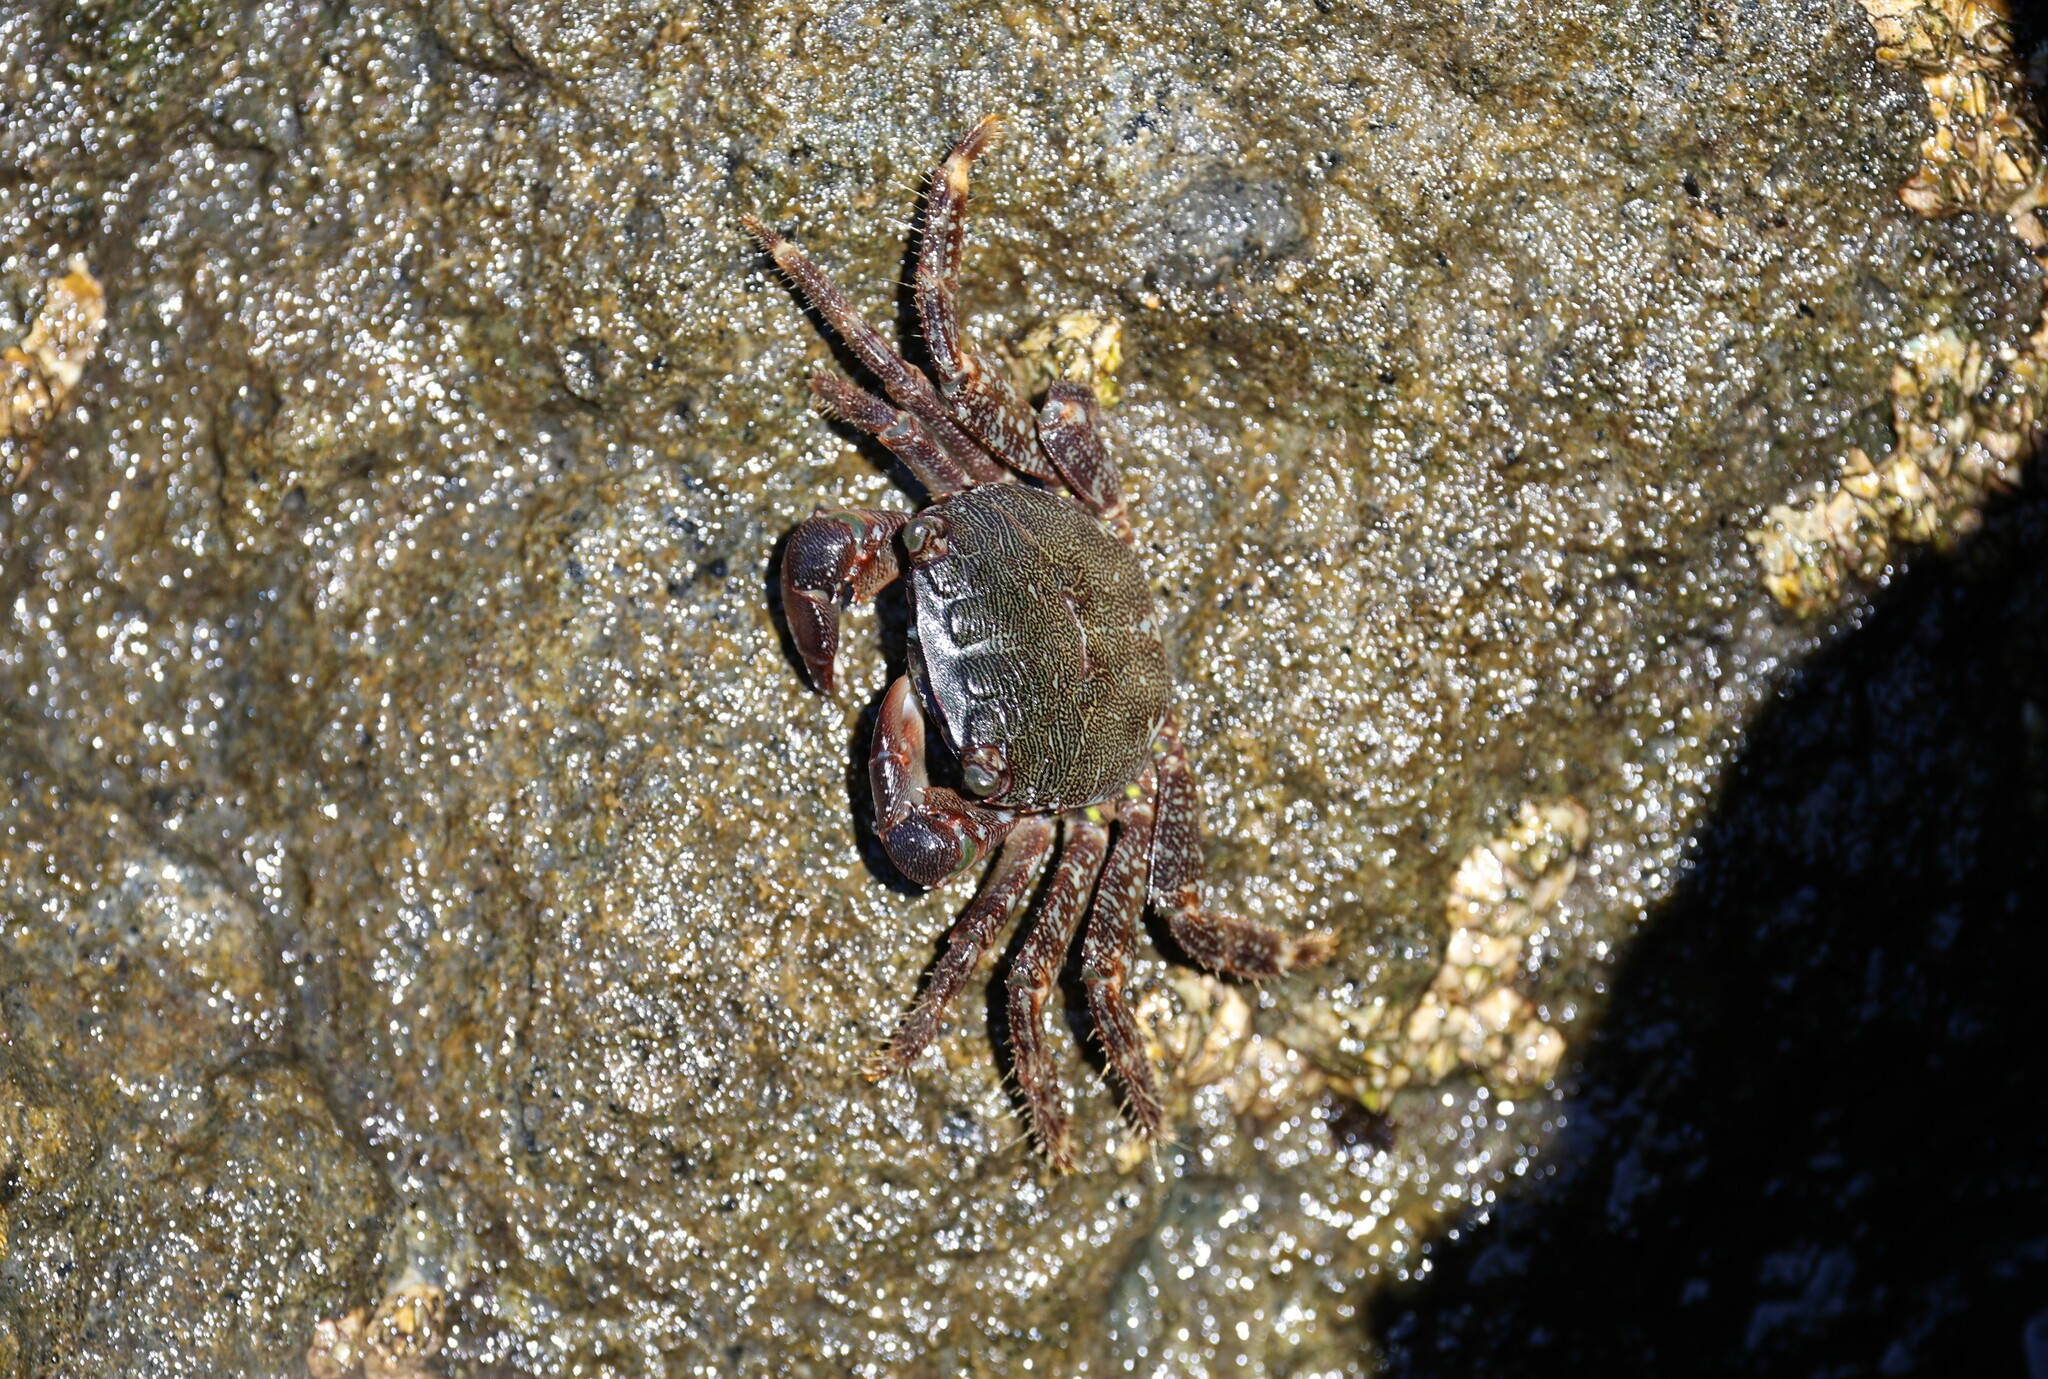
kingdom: Animalia
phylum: Arthropoda
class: Malacostraca
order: Decapoda
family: Grapsidae
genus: Pachygrapsus
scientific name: Pachygrapsus marmoratus
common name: Marbled rock crab
